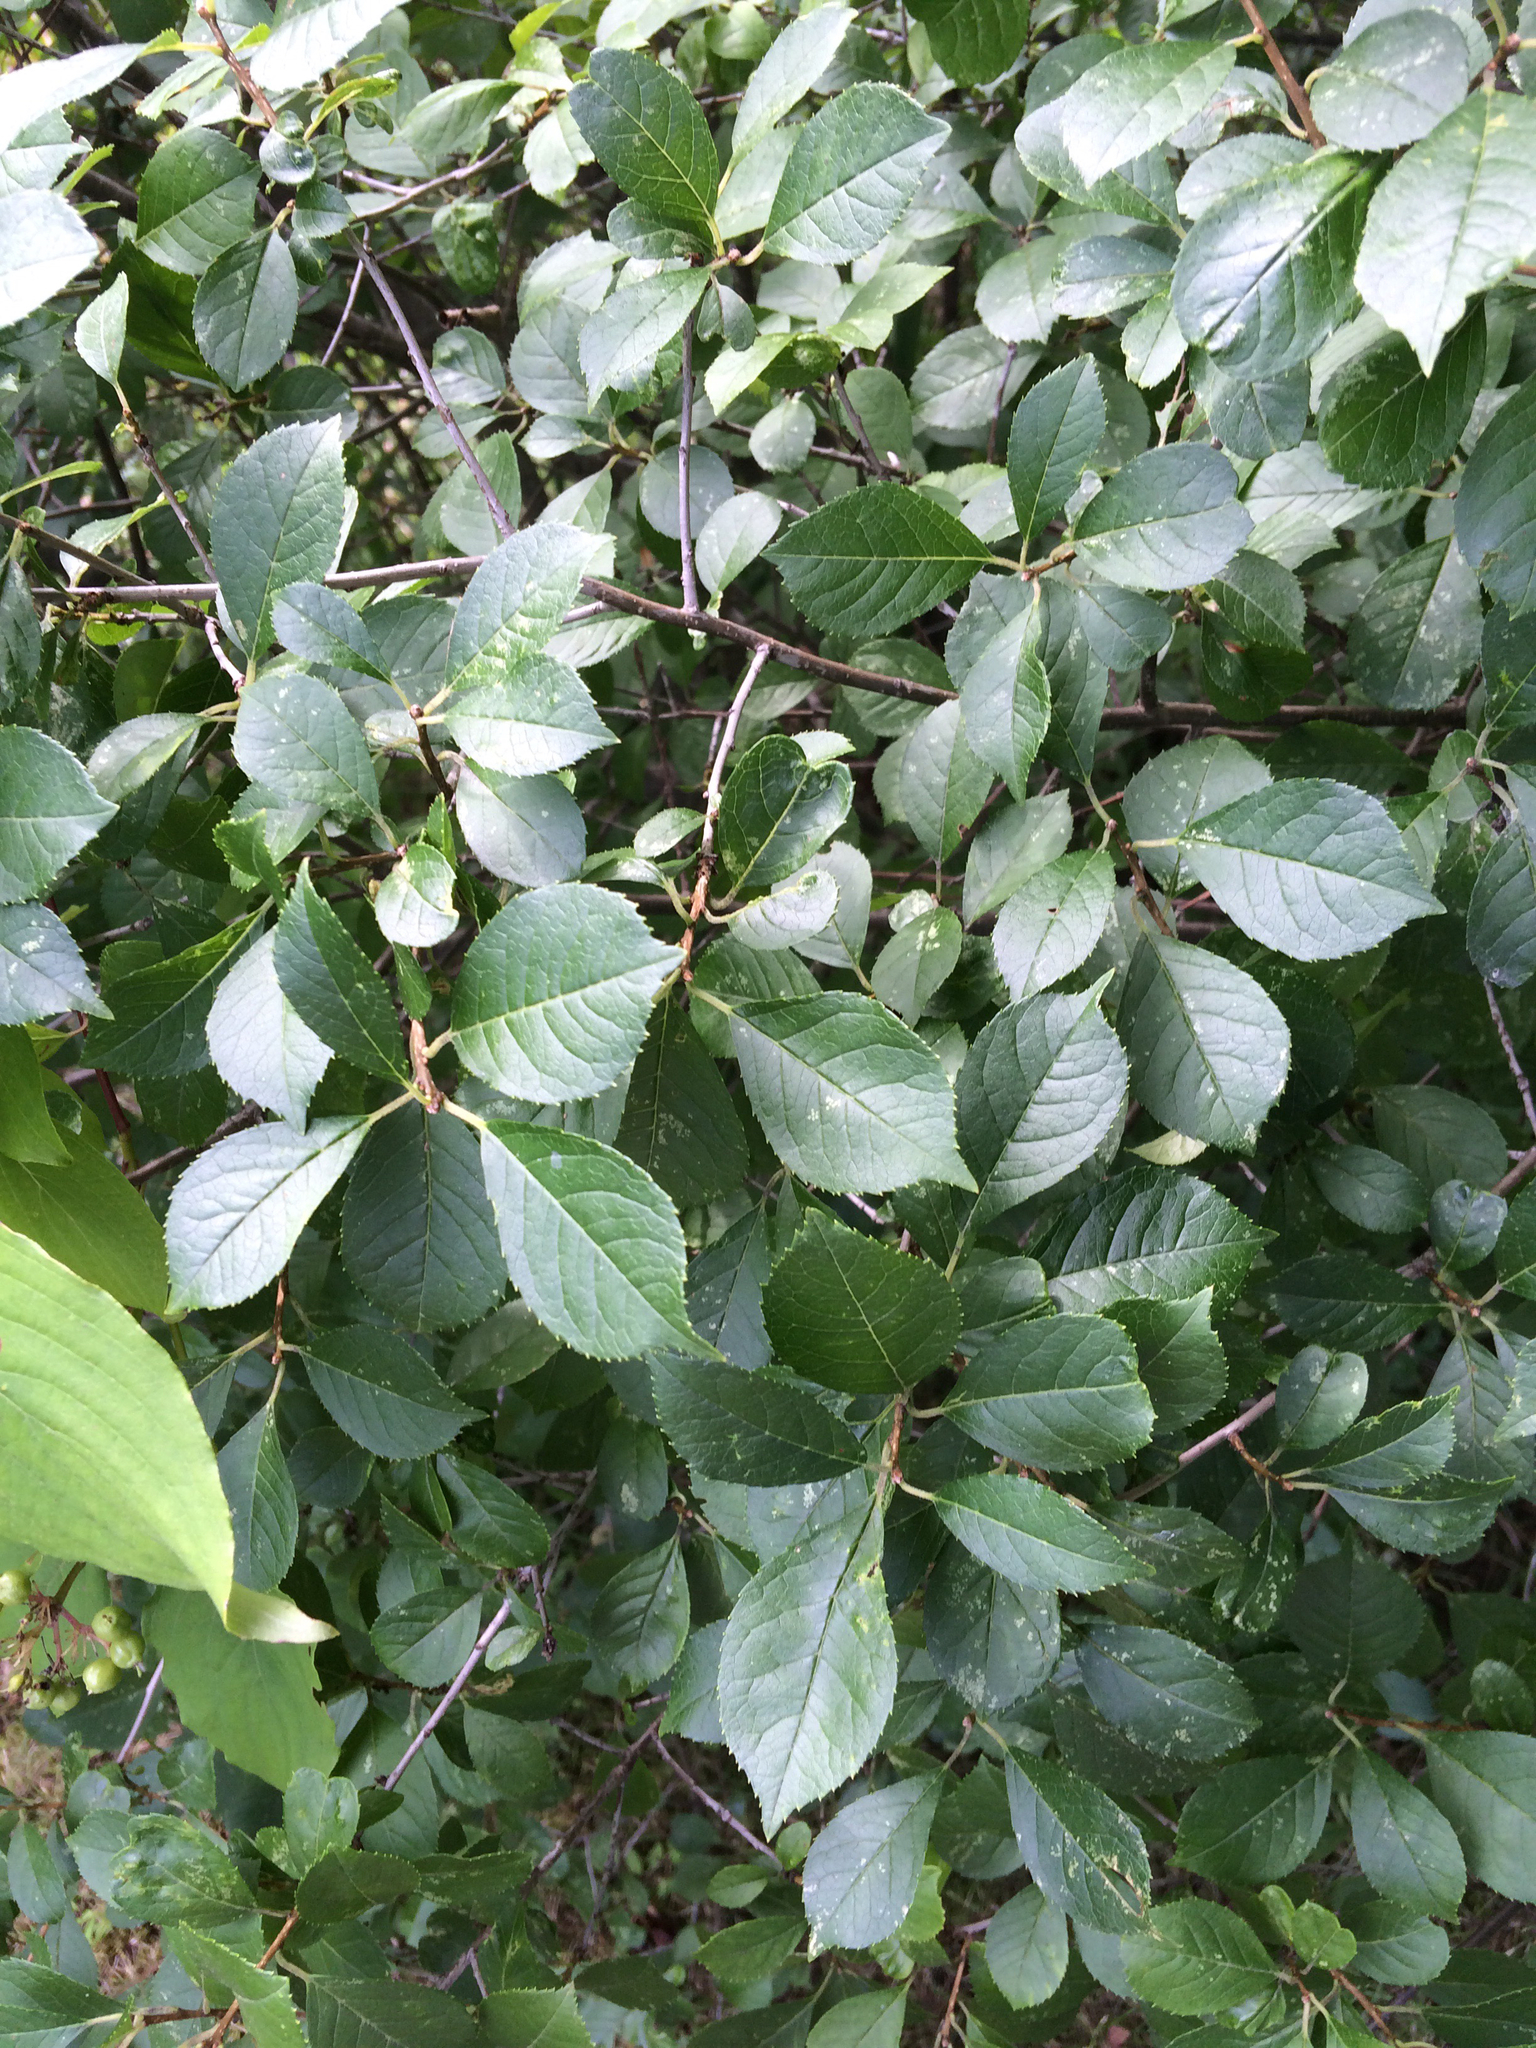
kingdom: Plantae
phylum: Tracheophyta
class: Magnoliopsida
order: Aquifoliales
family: Aquifoliaceae
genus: Ilex
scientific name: Ilex verticillata
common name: Virginia winterberry
